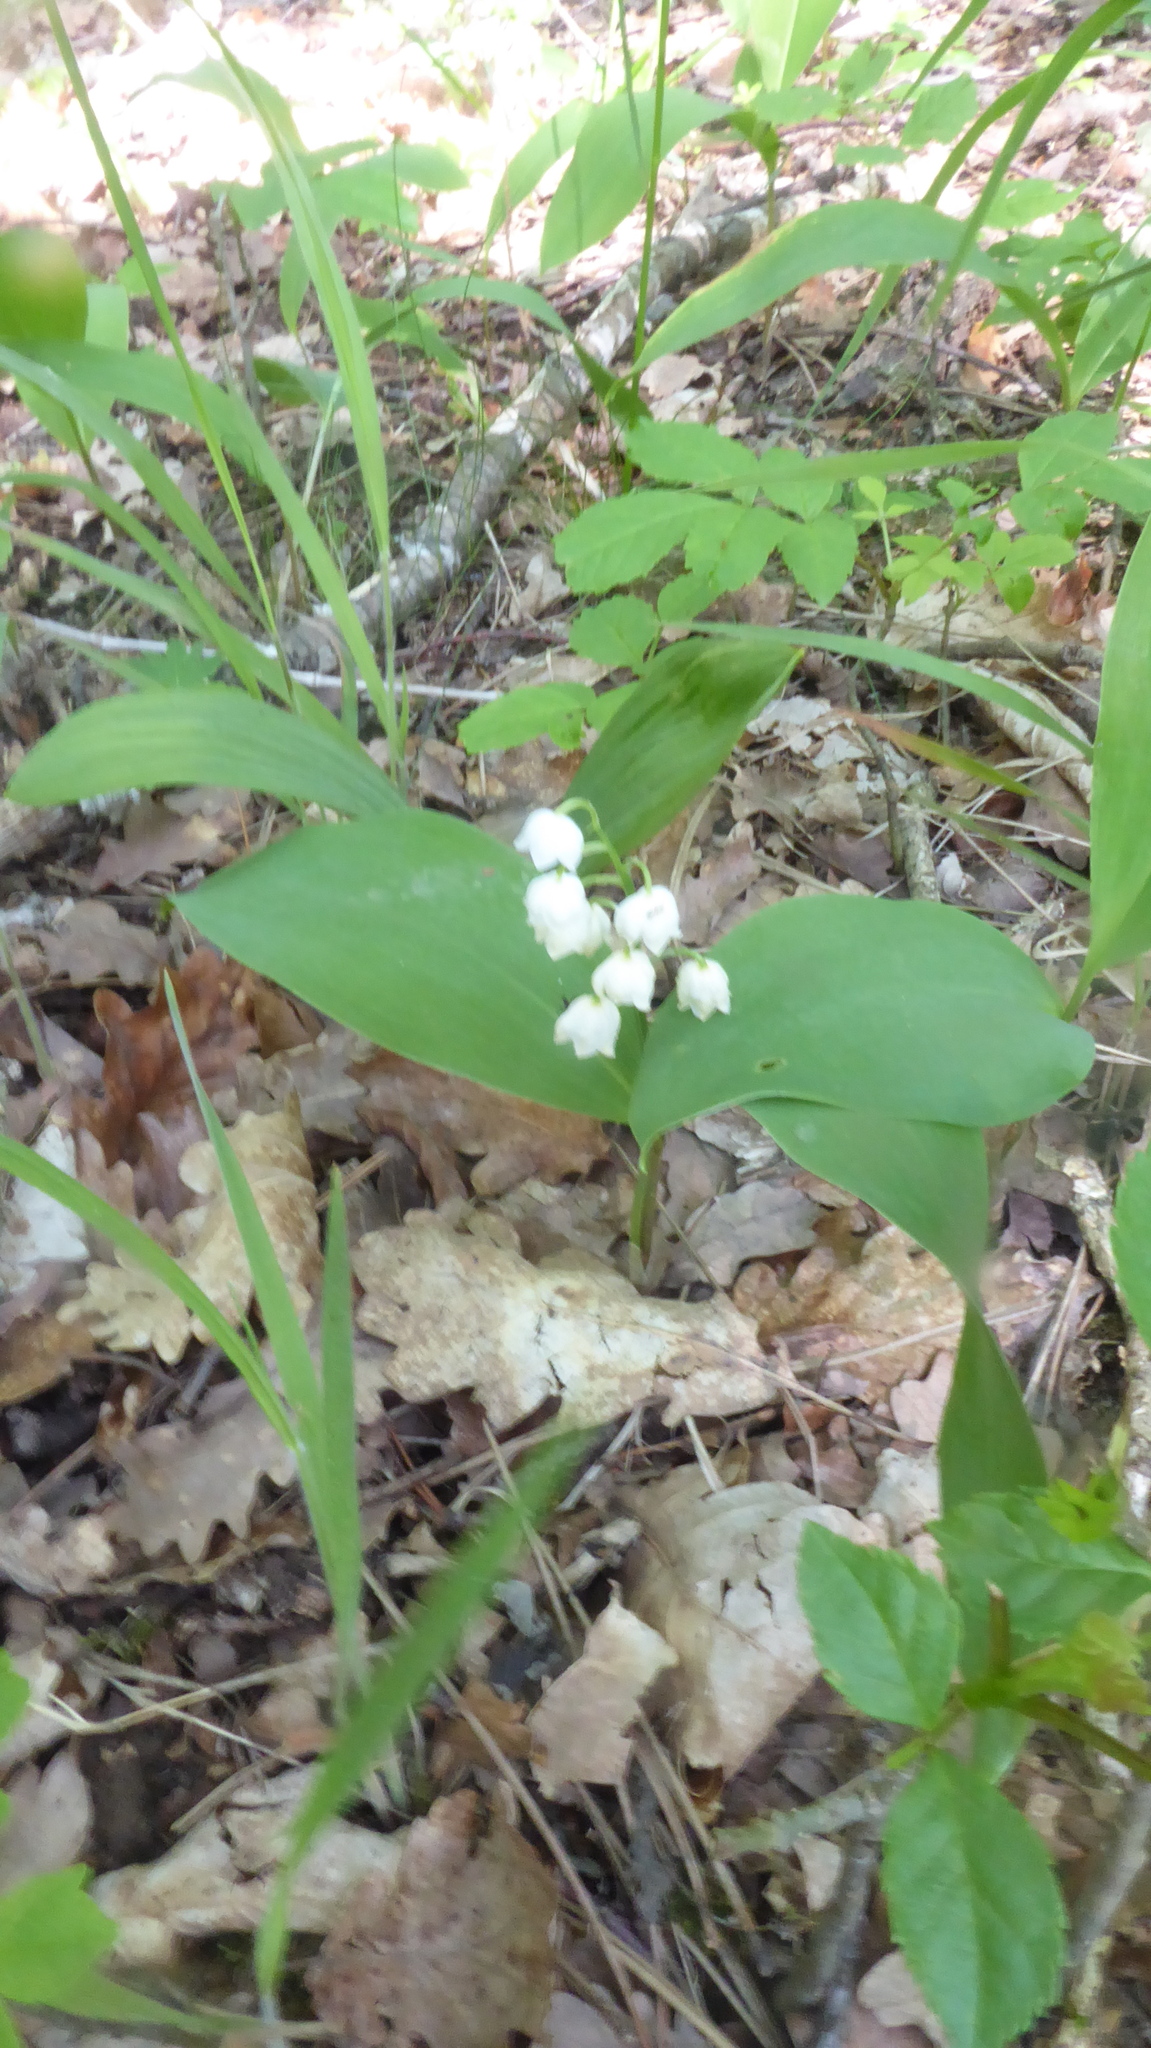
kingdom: Plantae
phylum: Tracheophyta
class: Liliopsida
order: Asparagales
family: Asparagaceae
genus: Convallaria
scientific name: Convallaria majalis
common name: Lily-of-the-valley
